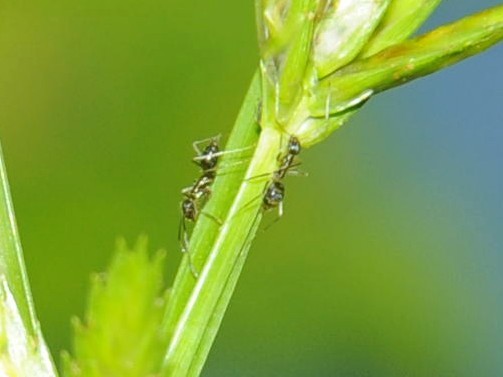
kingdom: Animalia
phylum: Arthropoda
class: Insecta
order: Hymenoptera
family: Formicidae
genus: Paratrechina
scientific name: Paratrechina longicornis
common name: Longhorned crazy ant
